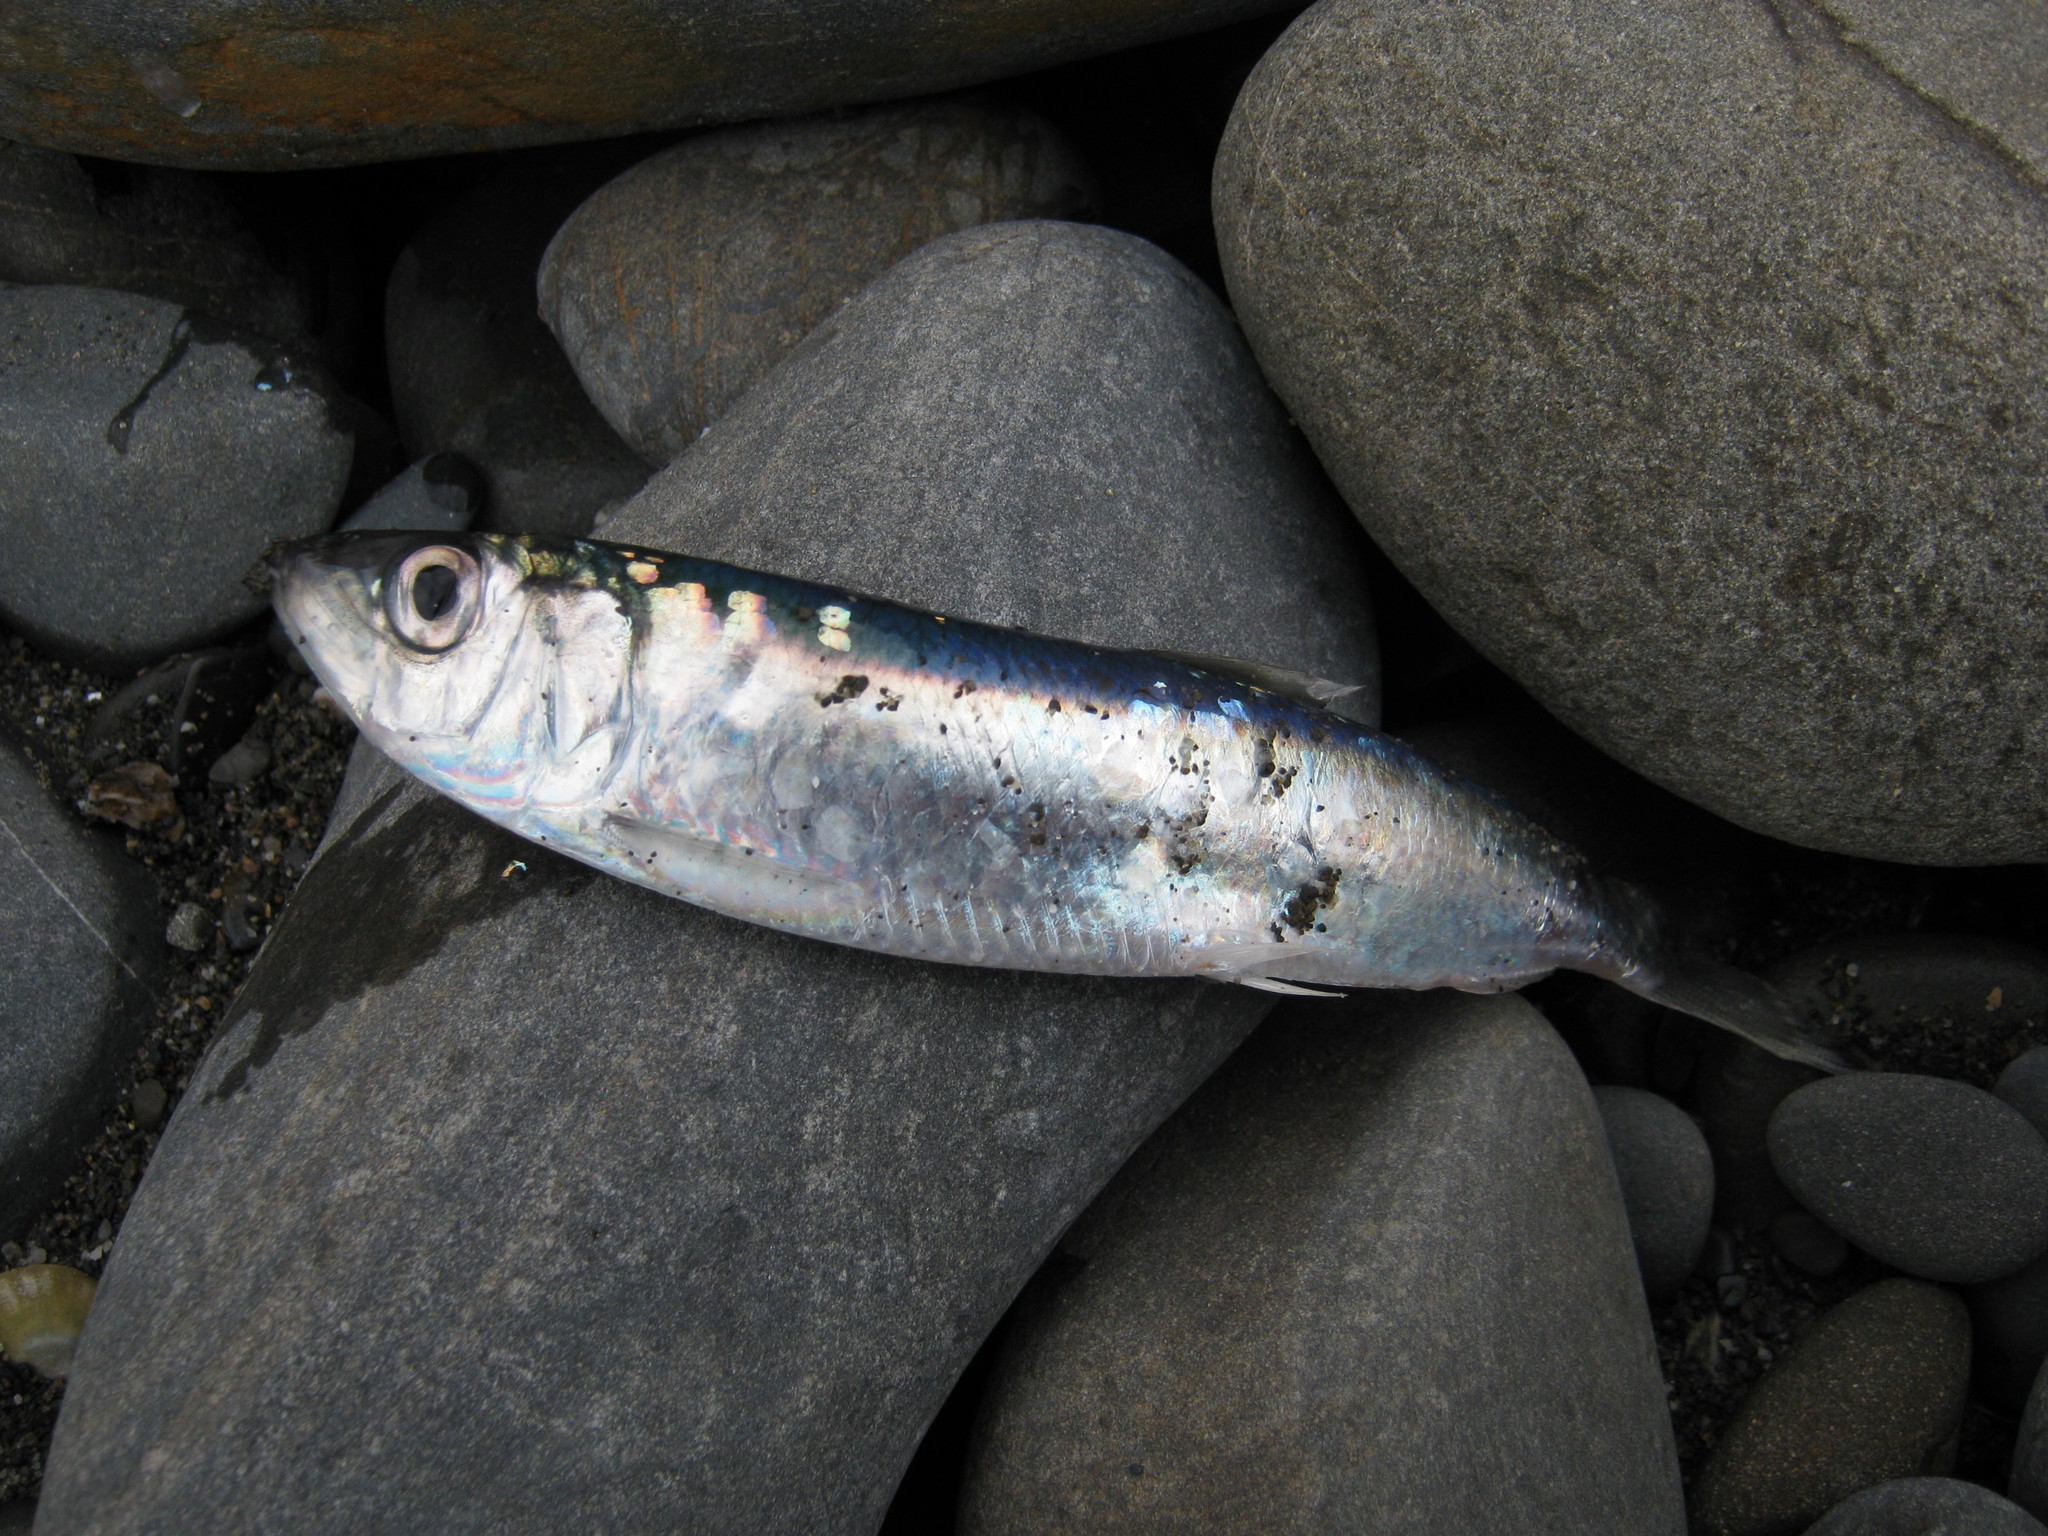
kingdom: Animalia
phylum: Chordata
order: Clupeiformes
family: Clupeidae
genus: Clupea
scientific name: Clupea harengus
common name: Herring
